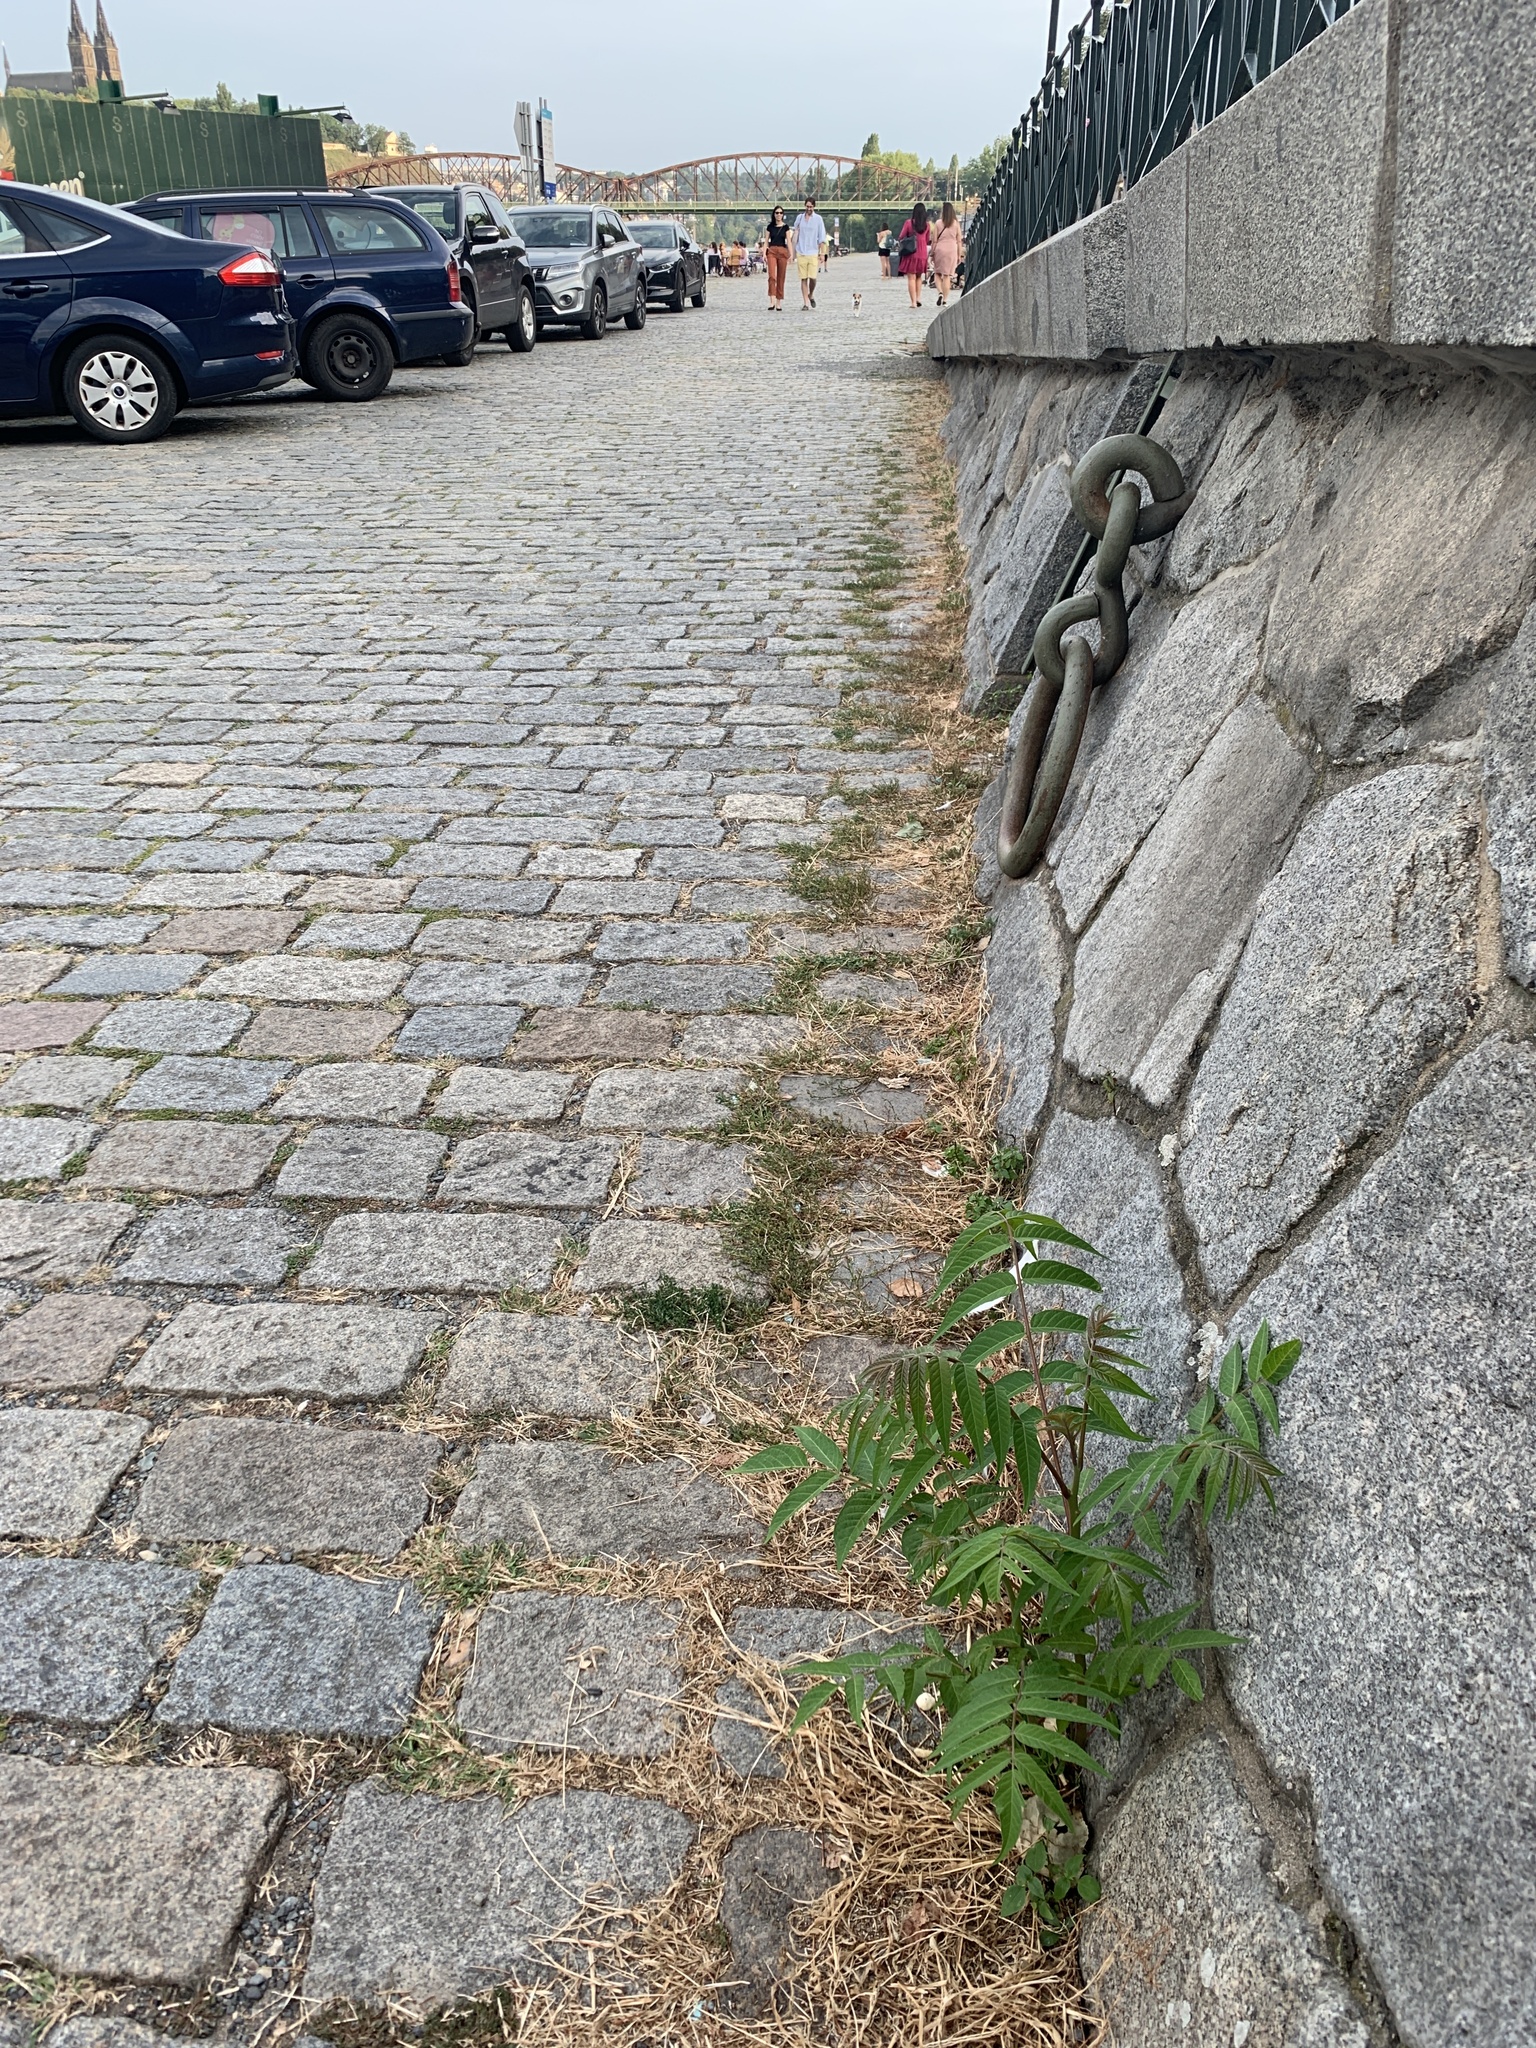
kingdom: Plantae
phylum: Tracheophyta
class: Magnoliopsida
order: Sapindales
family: Simaroubaceae
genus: Ailanthus
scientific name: Ailanthus altissima
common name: Tree-of-heaven
